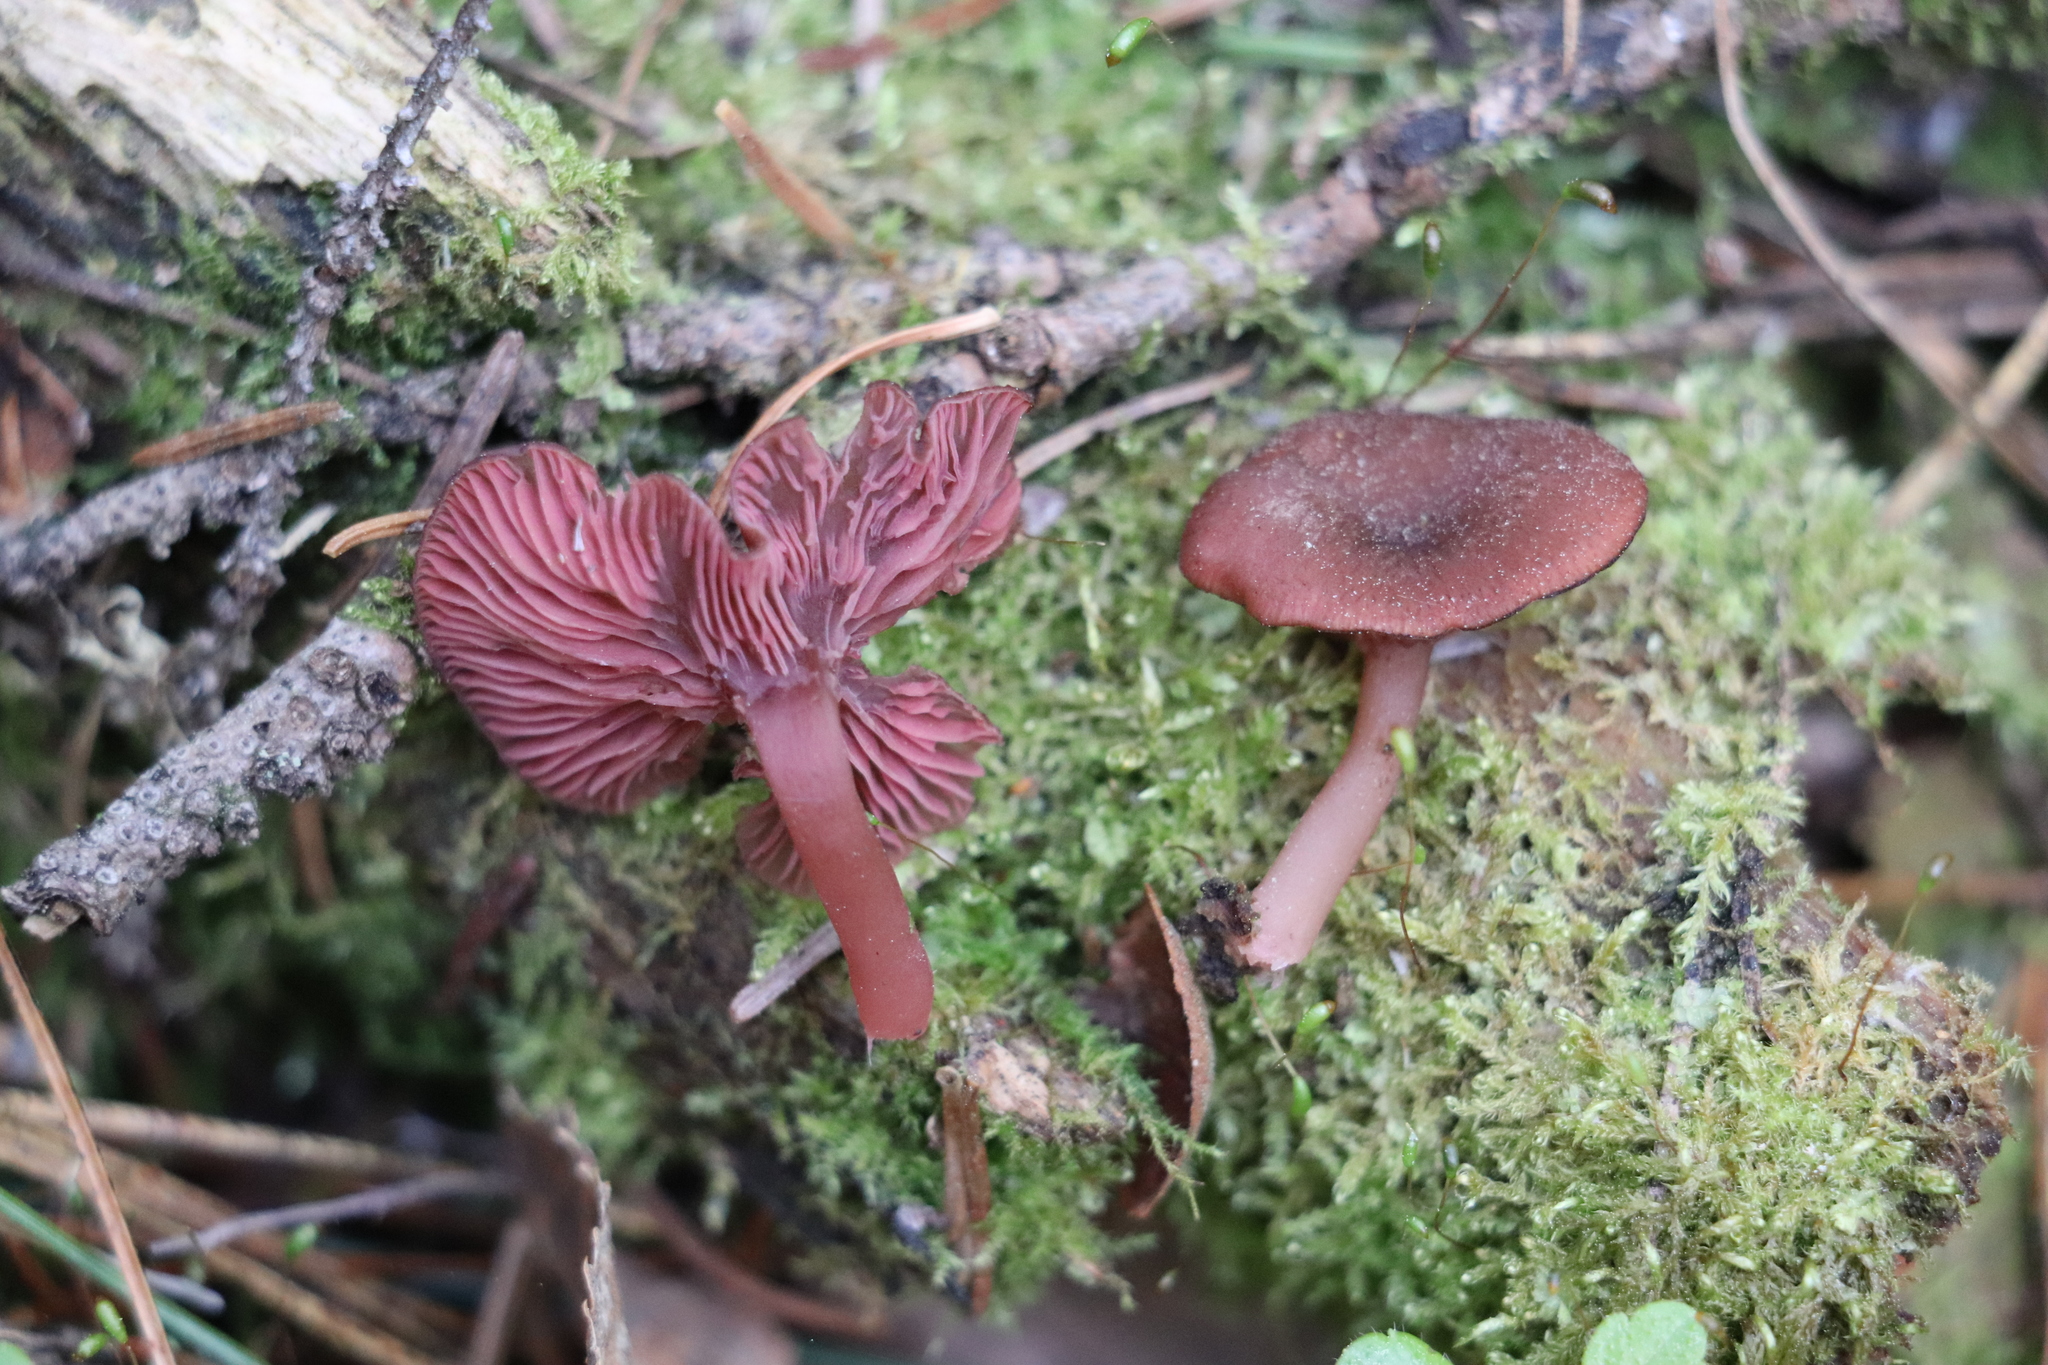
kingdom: Fungi
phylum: Basidiomycota
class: Agaricomycetes
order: Agaricales
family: Hygrophoraceae
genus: Arrhenia
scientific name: Arrhenia discorosea
